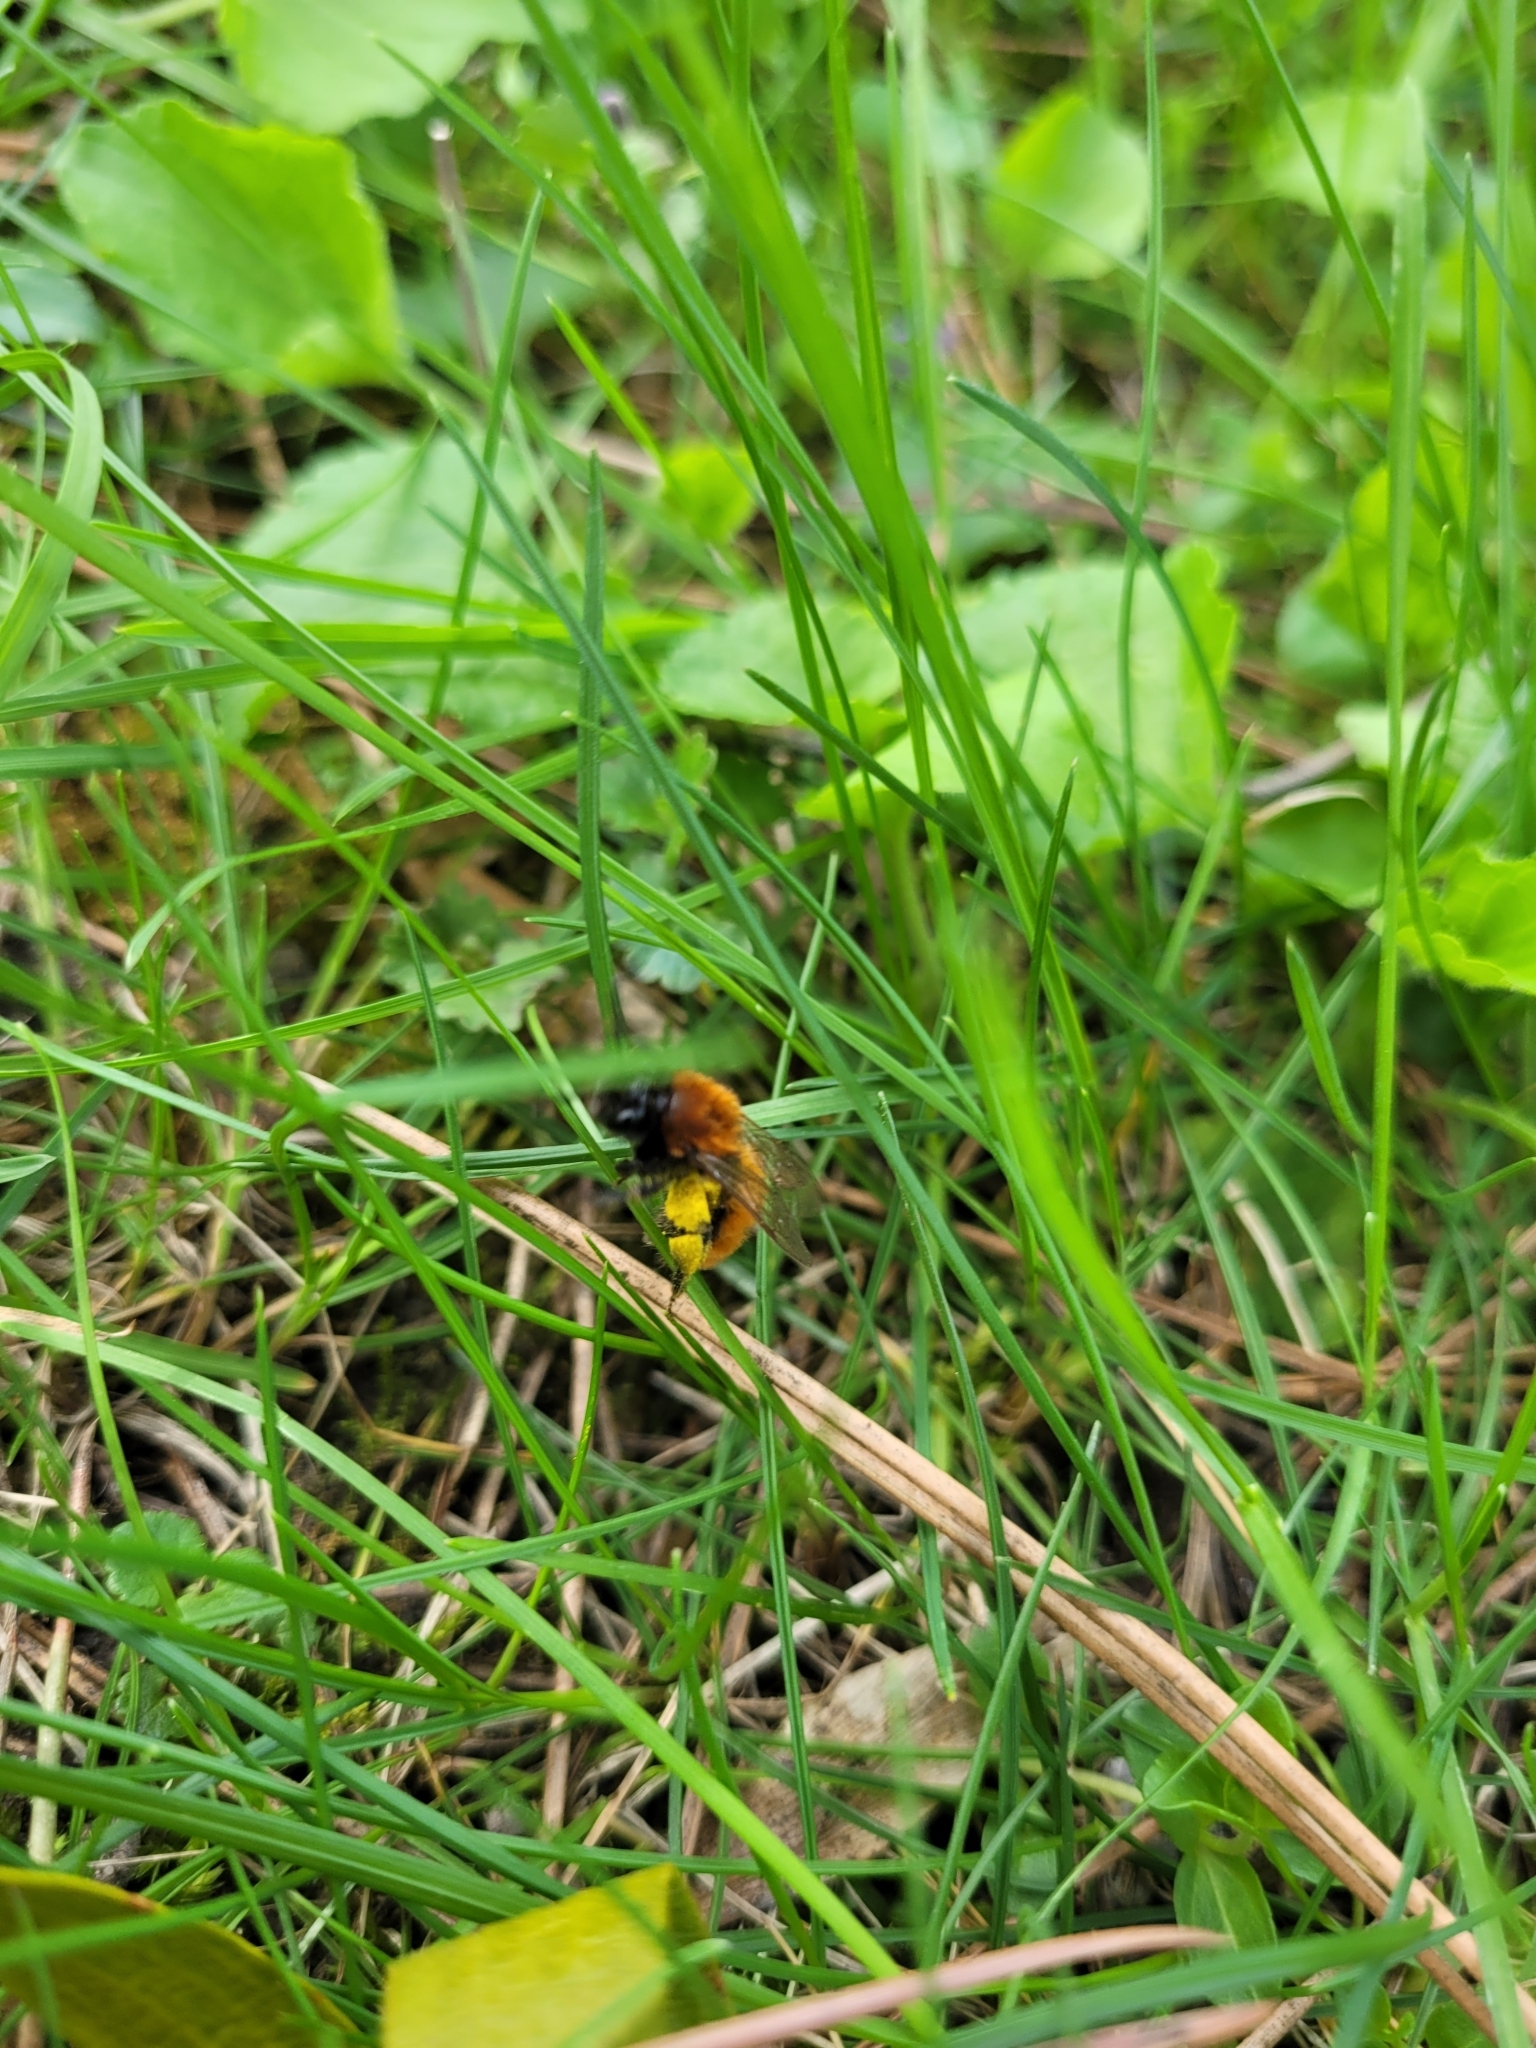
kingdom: Animalia
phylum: Arthropoda
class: Insecta
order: Hymenoptera
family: Andrenidae
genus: Andrena
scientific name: Andrena fulva
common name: Tawny mining bee
